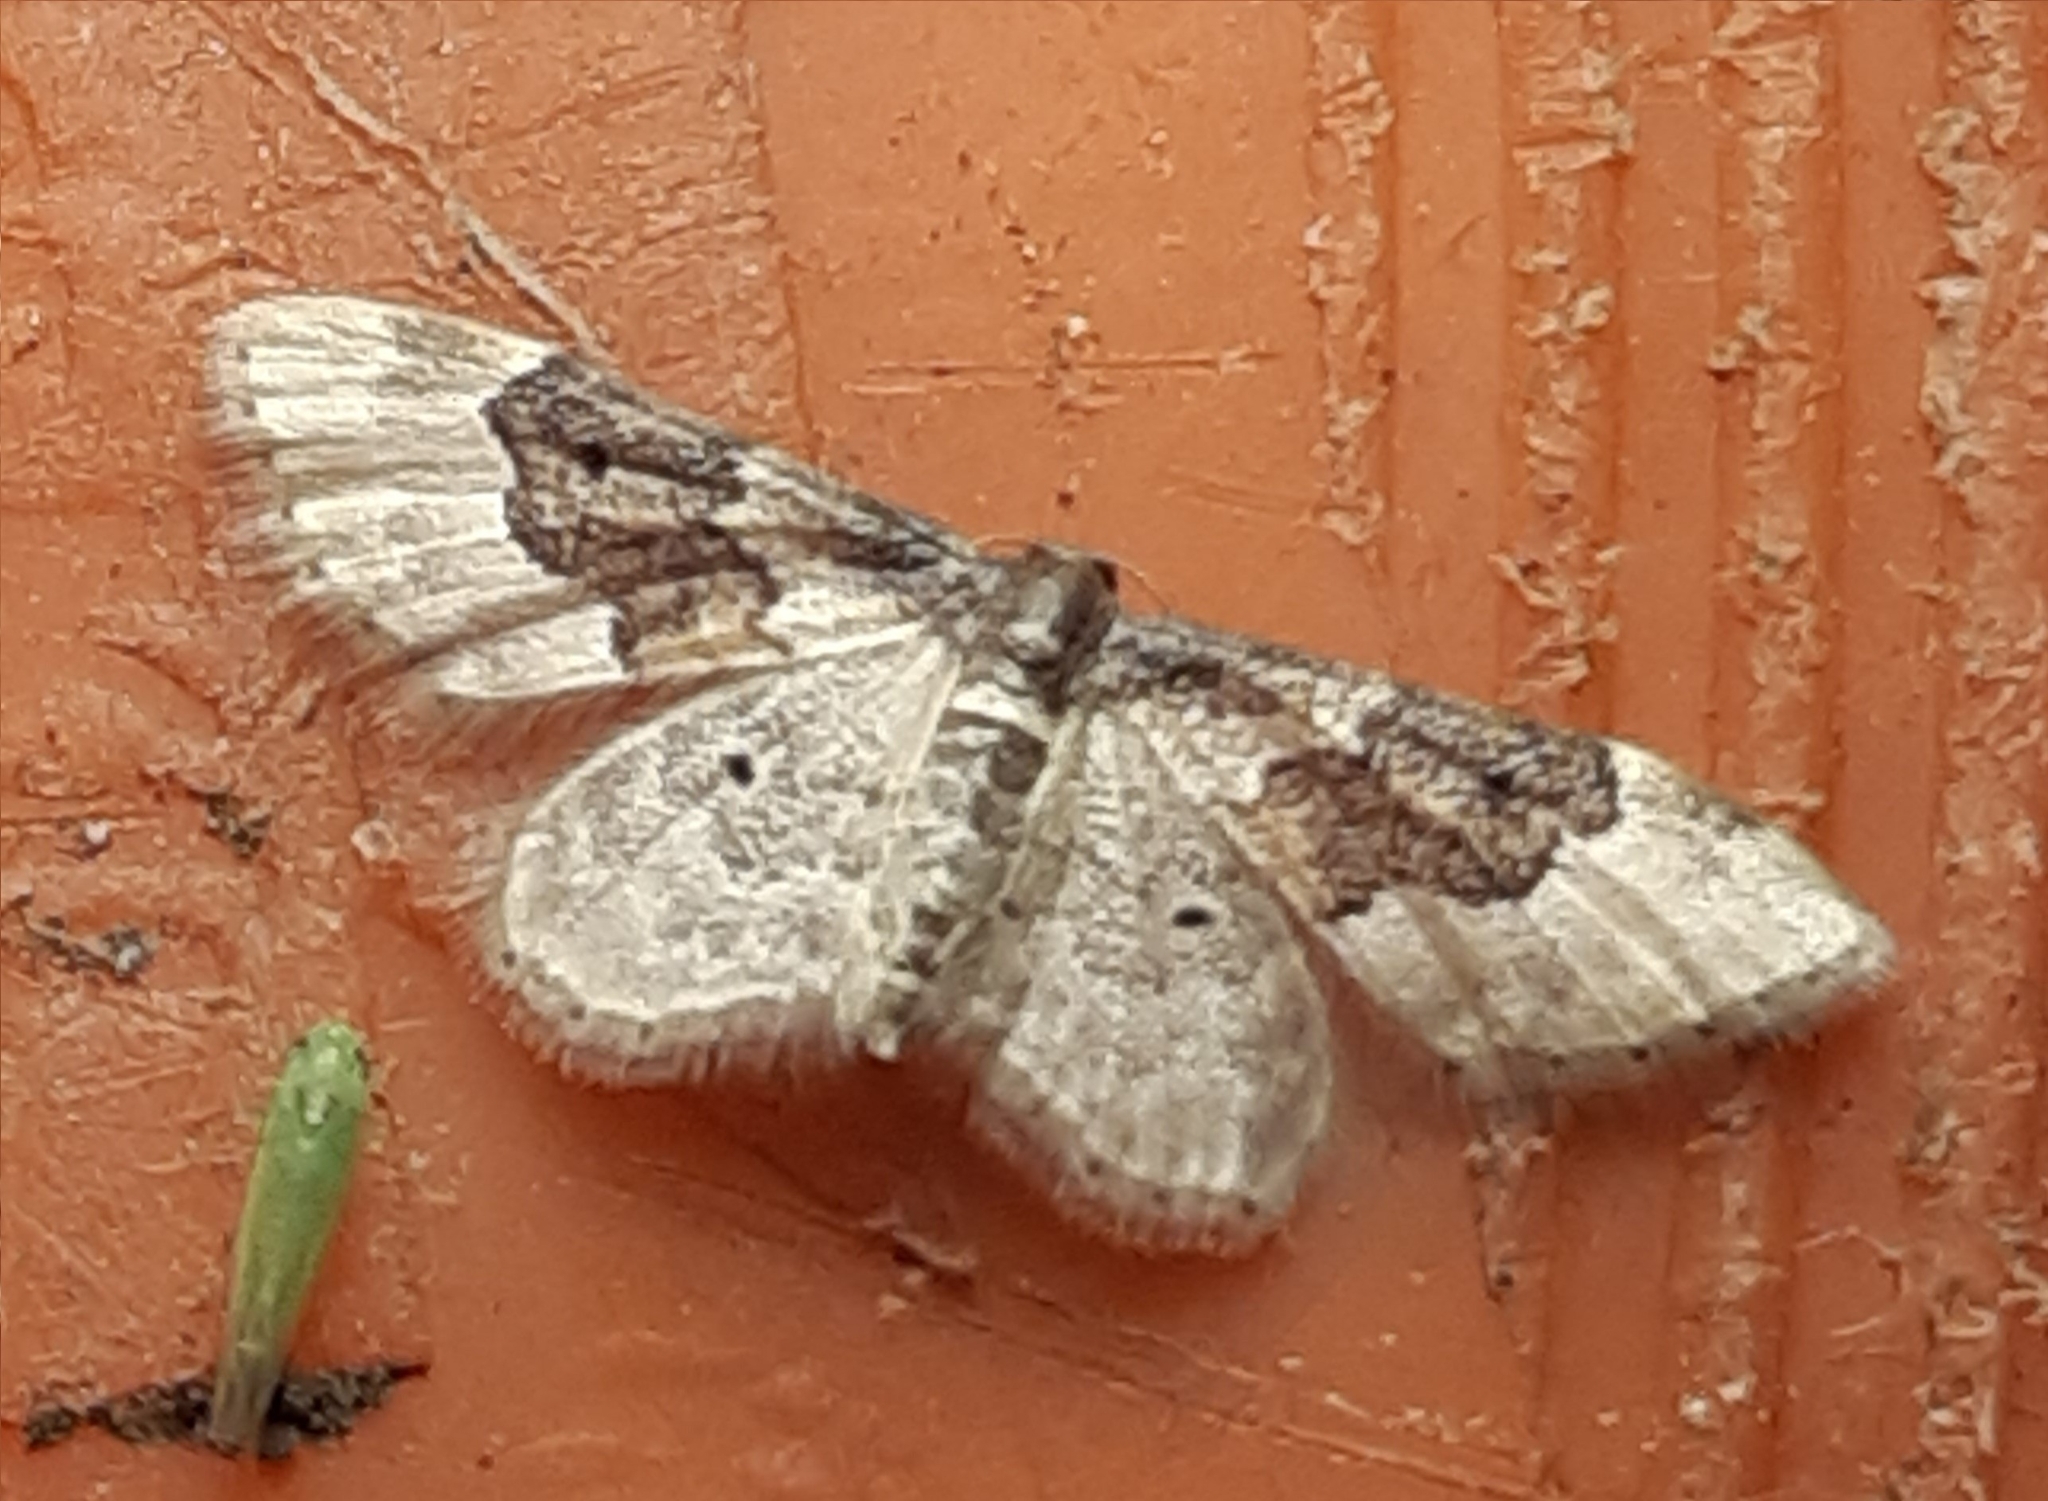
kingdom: Animalia
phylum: Arthropoda
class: Insecta
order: Lepidoptera
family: Geometridae
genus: Idaea
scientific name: Idaea rusticata
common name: Least carpet
